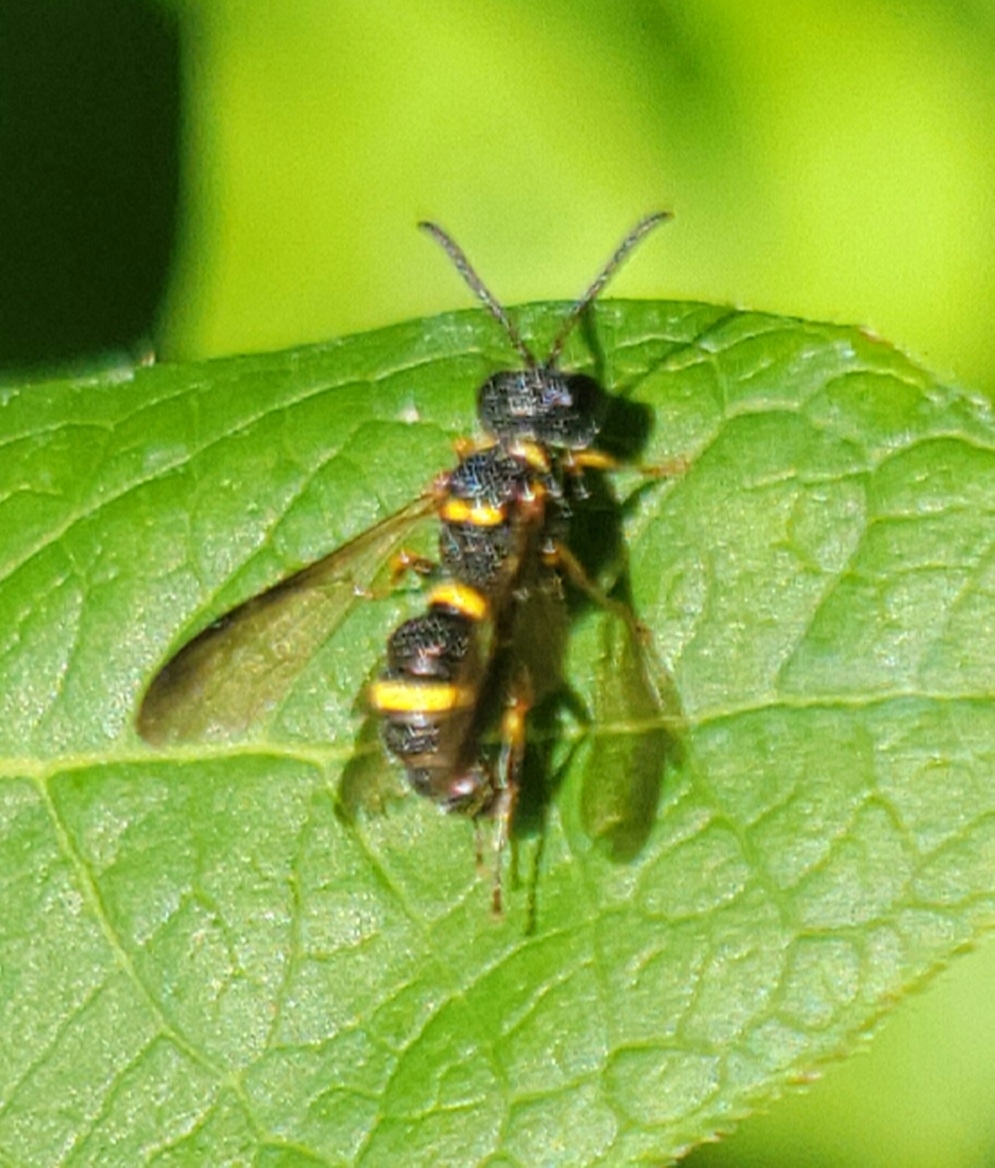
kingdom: Animalia
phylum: Arthropoda
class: Insecta
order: Hymenoptera
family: Crabronidae
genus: Cerceris
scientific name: Cerceris insolita
